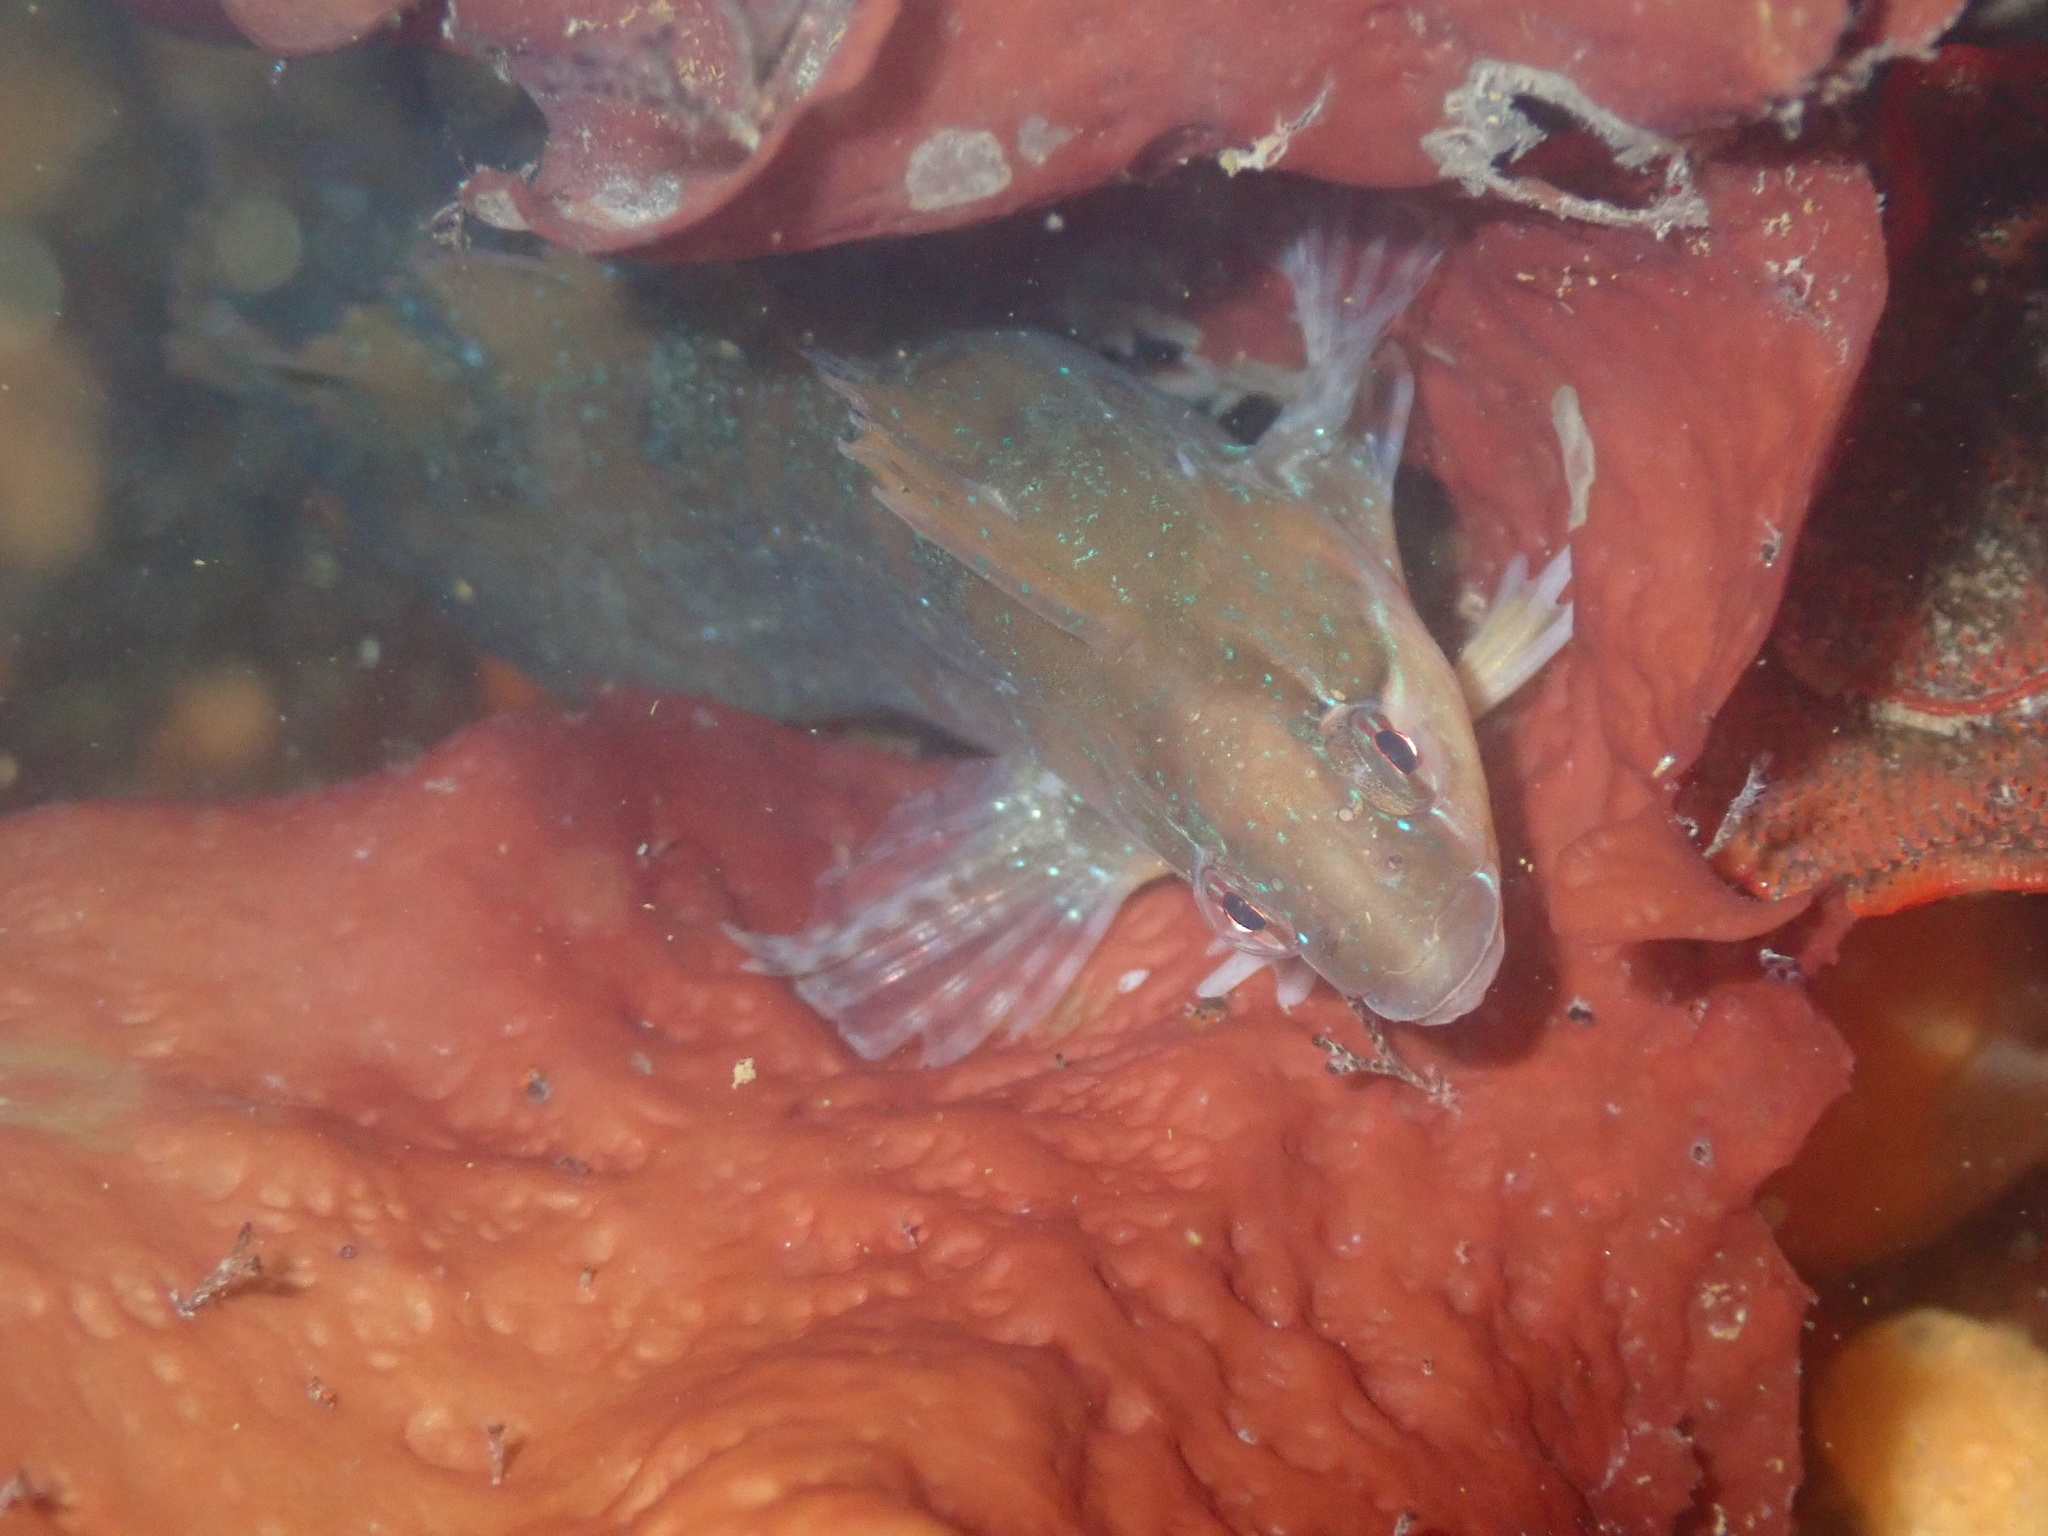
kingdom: Animalia
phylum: Chordata
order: Perciformes
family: Clinidae
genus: Gibbonsia
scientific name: Gibbonsia metzi
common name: Striped kelpfish
